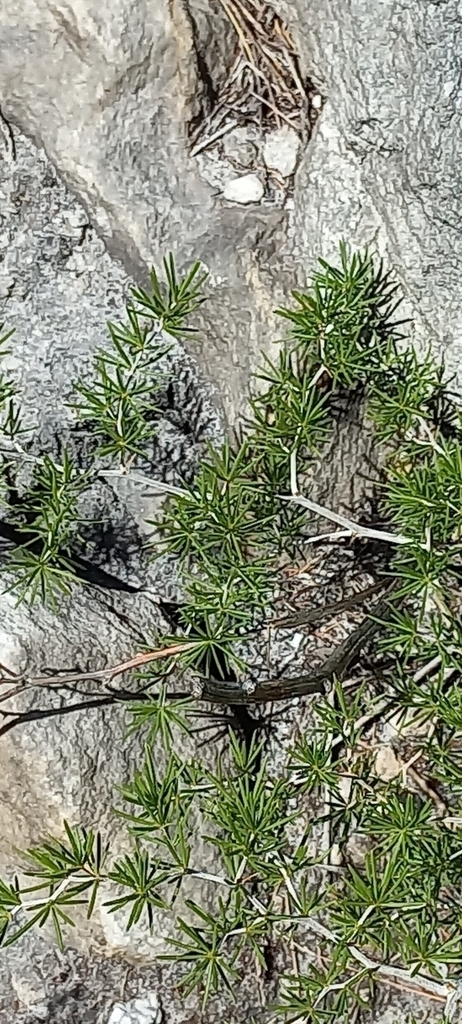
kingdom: Plantae
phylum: Tracheophyta
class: Liliopsida
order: Asparagales
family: Asparagaceae
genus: Asparagus
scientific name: Asparagus lignosus
